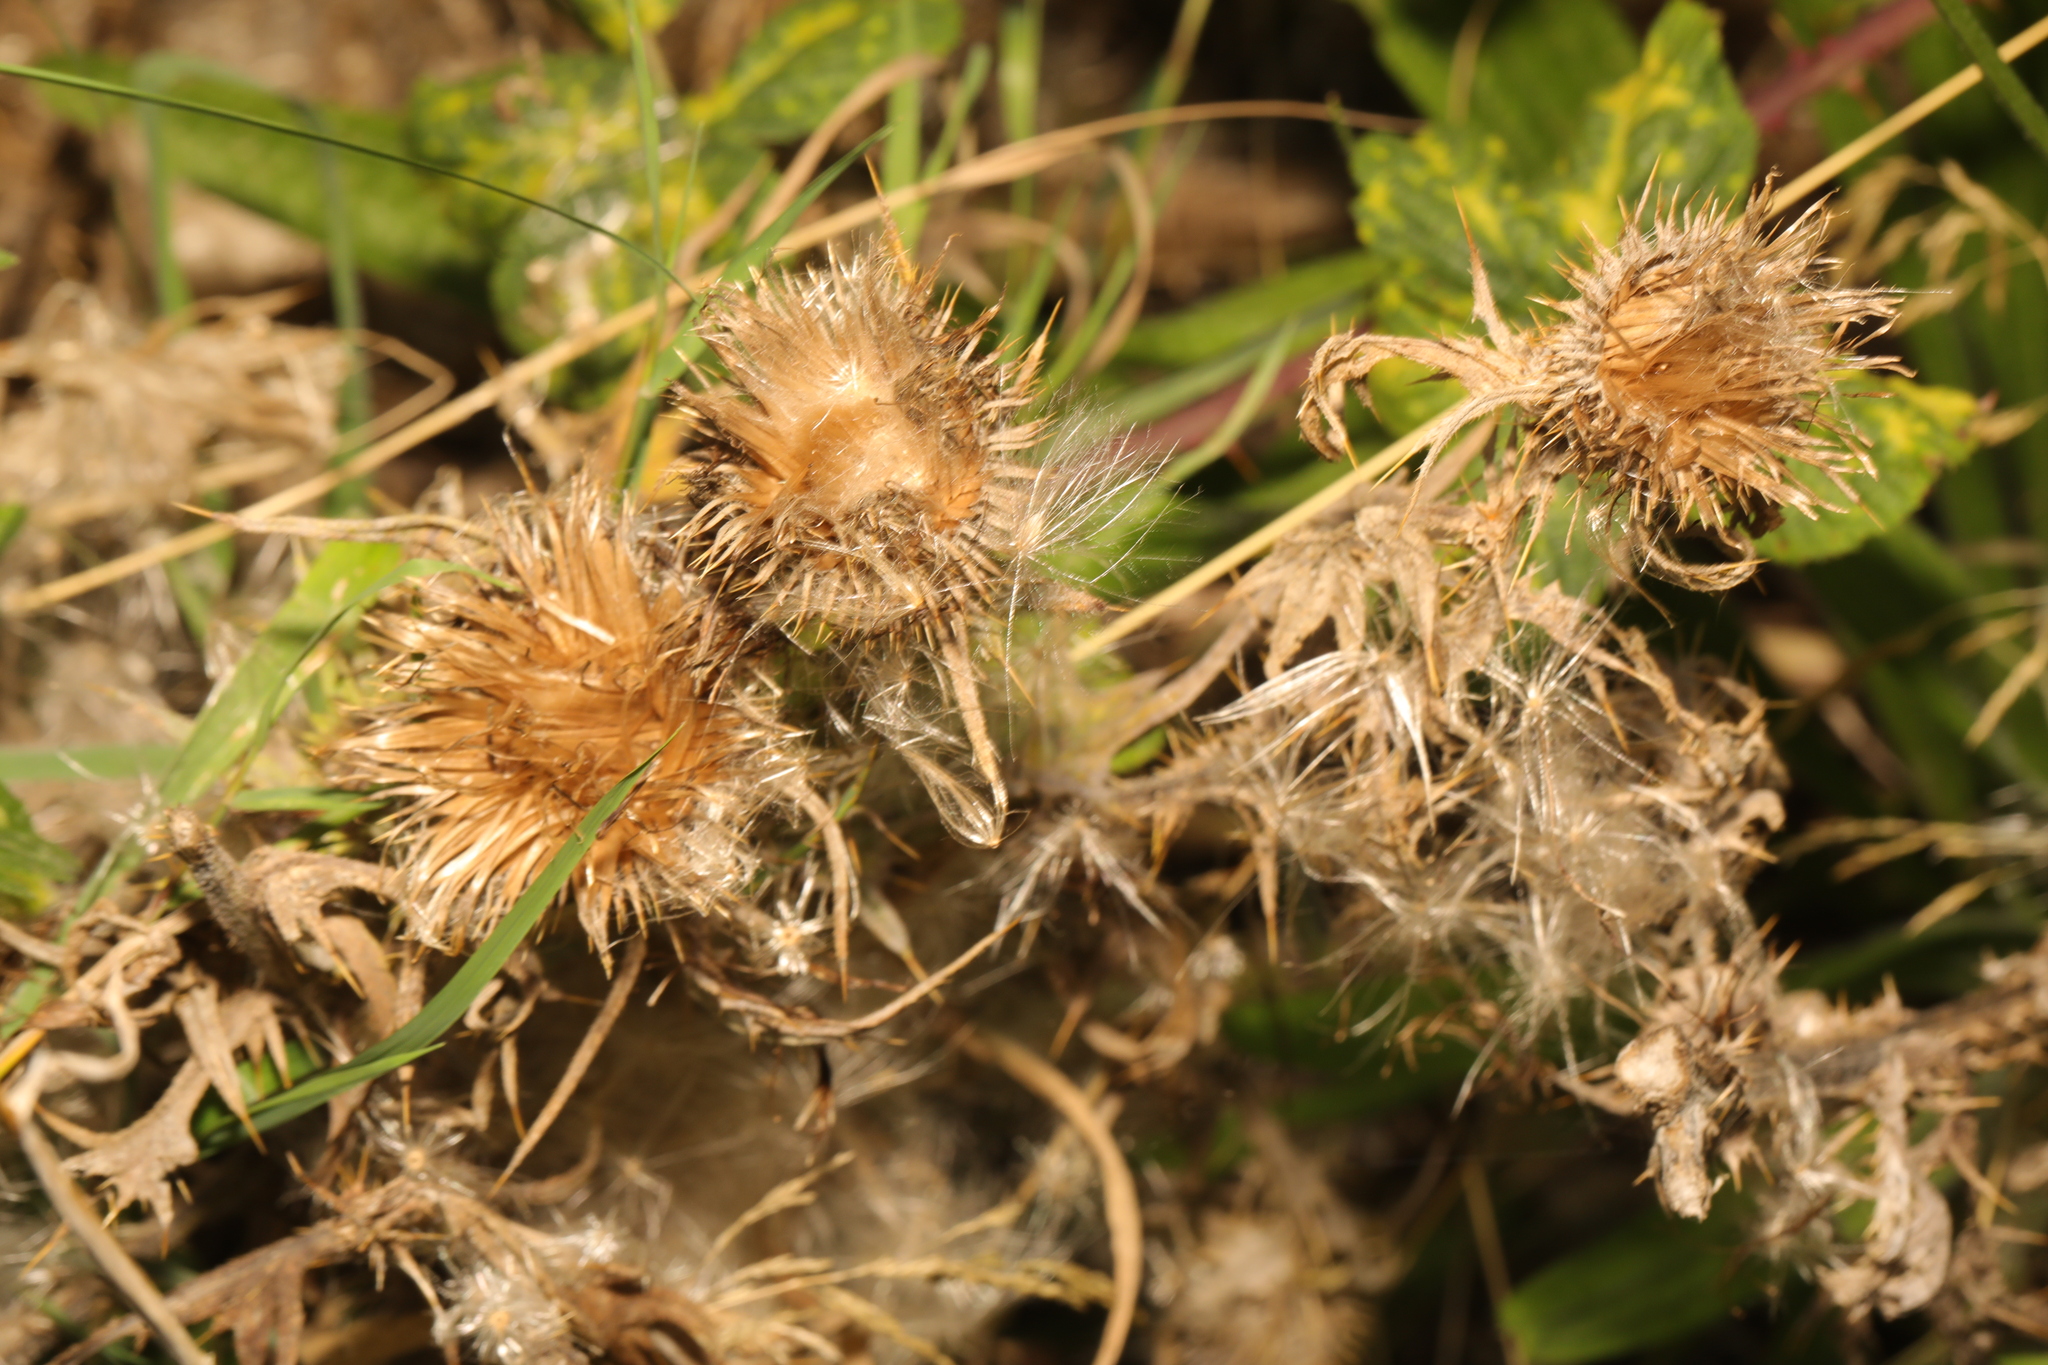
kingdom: Plantae
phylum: Tracheophyta
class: Magnoliopsida
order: Asterales
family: Asteraceae
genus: Cirsium
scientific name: Cirsium vulgare
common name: Bull thistle
